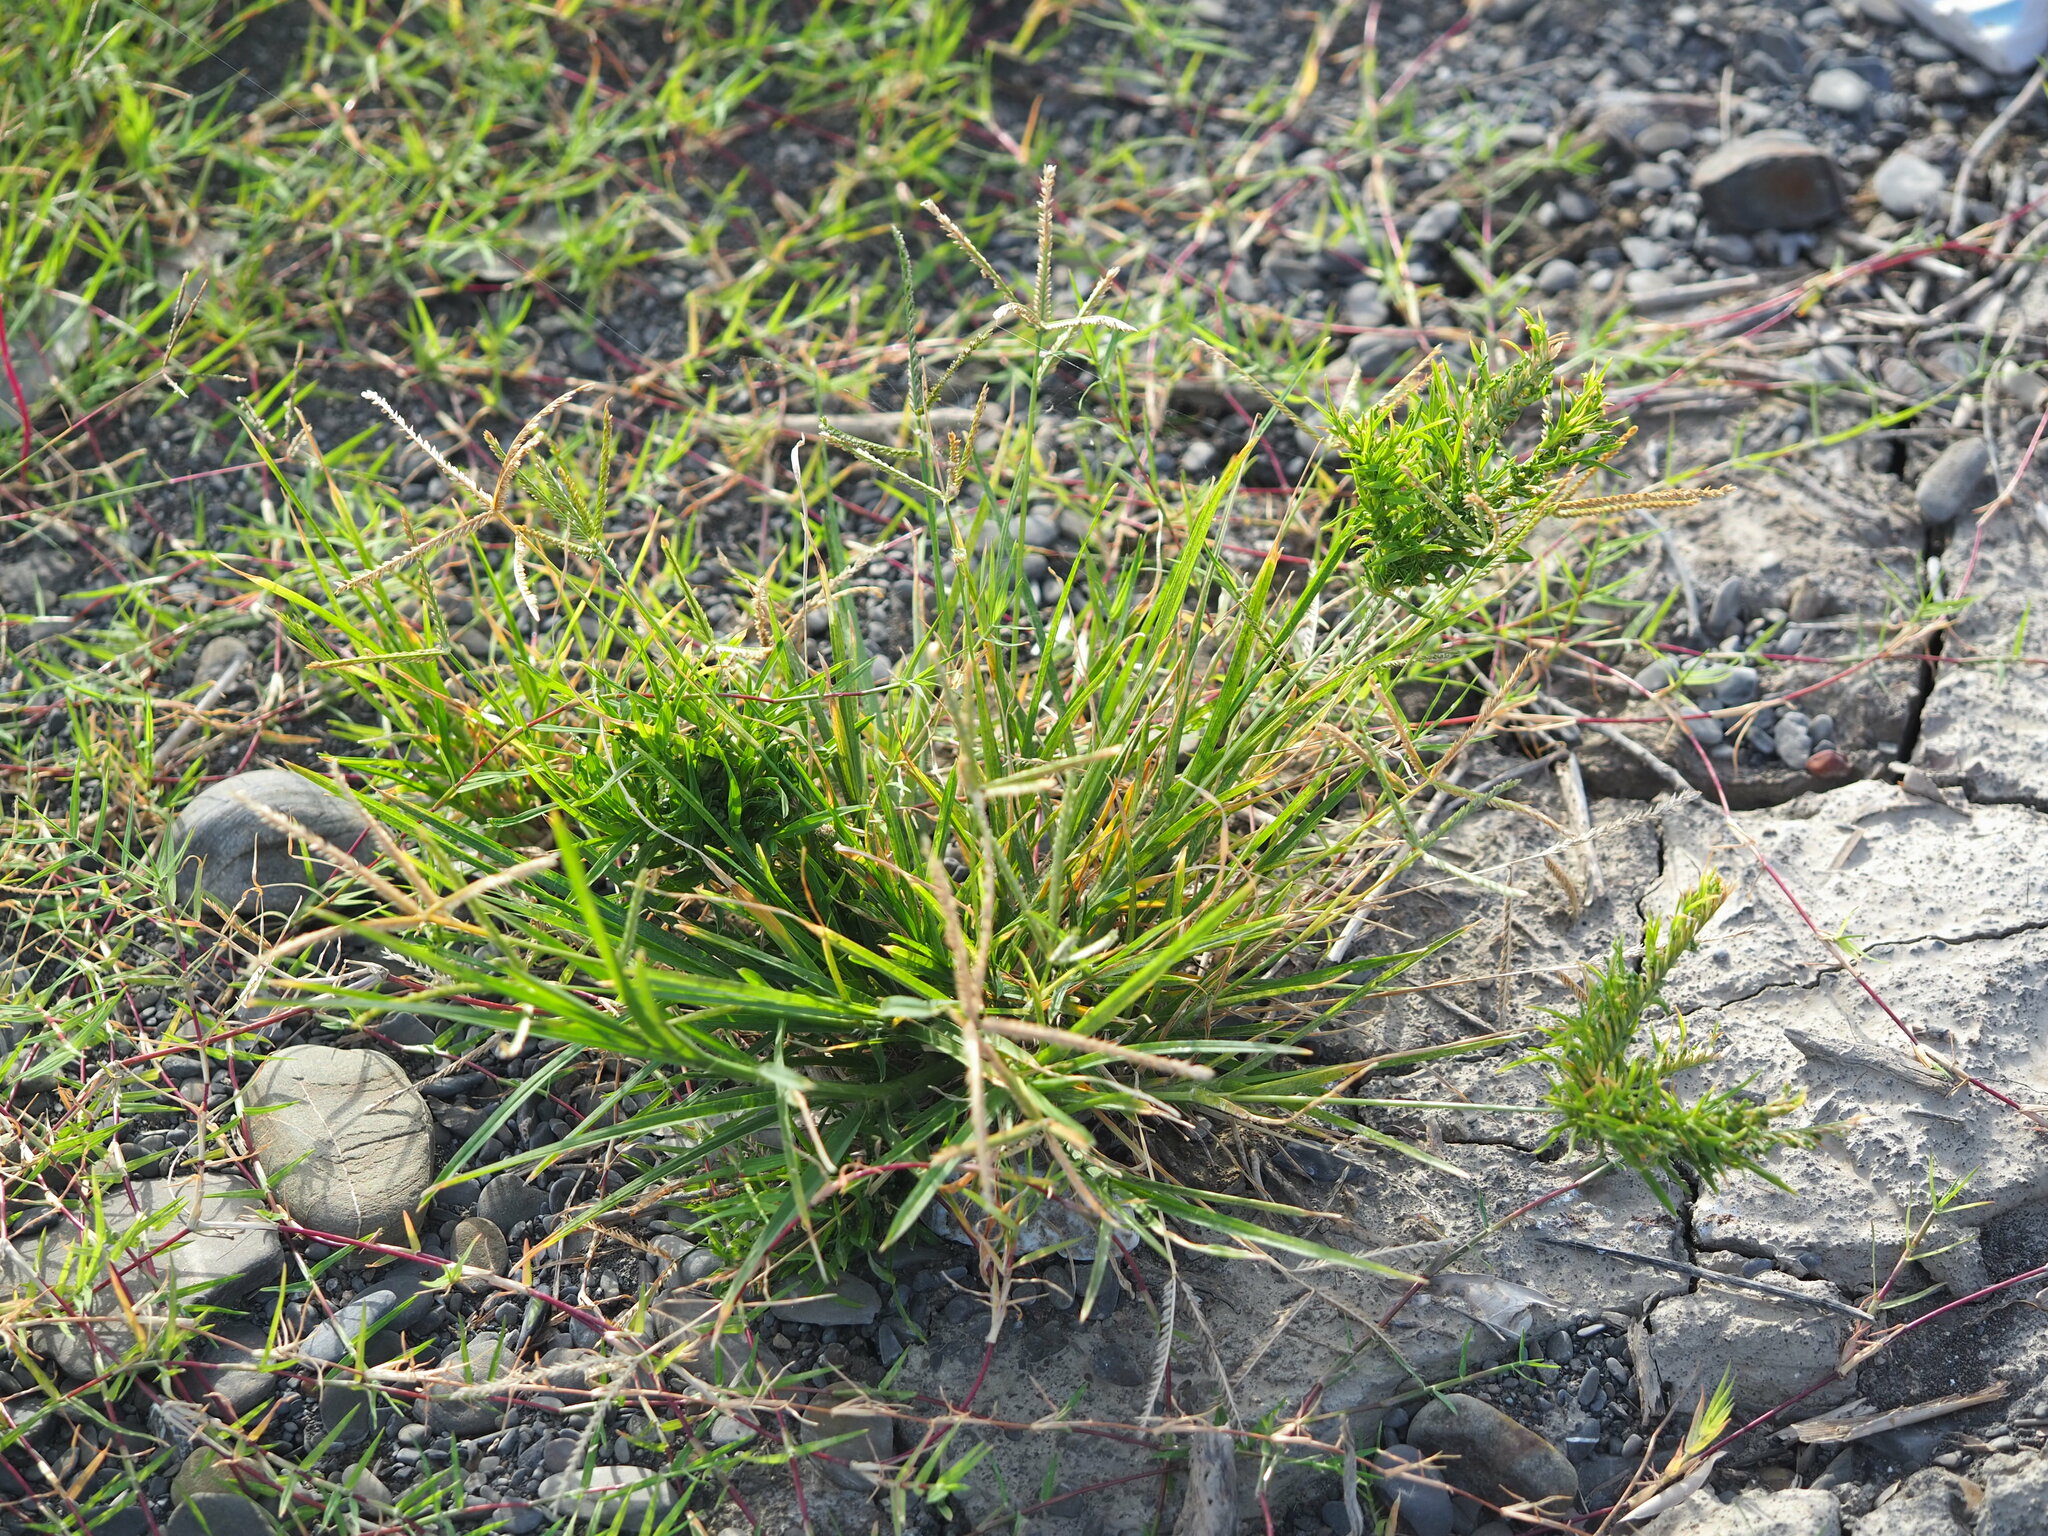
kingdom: Plantae
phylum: Tracheophyta
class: Liliopsida
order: Poales
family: Poaceae
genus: Eleusine
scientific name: Eleusine indica
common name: Yard-grass
